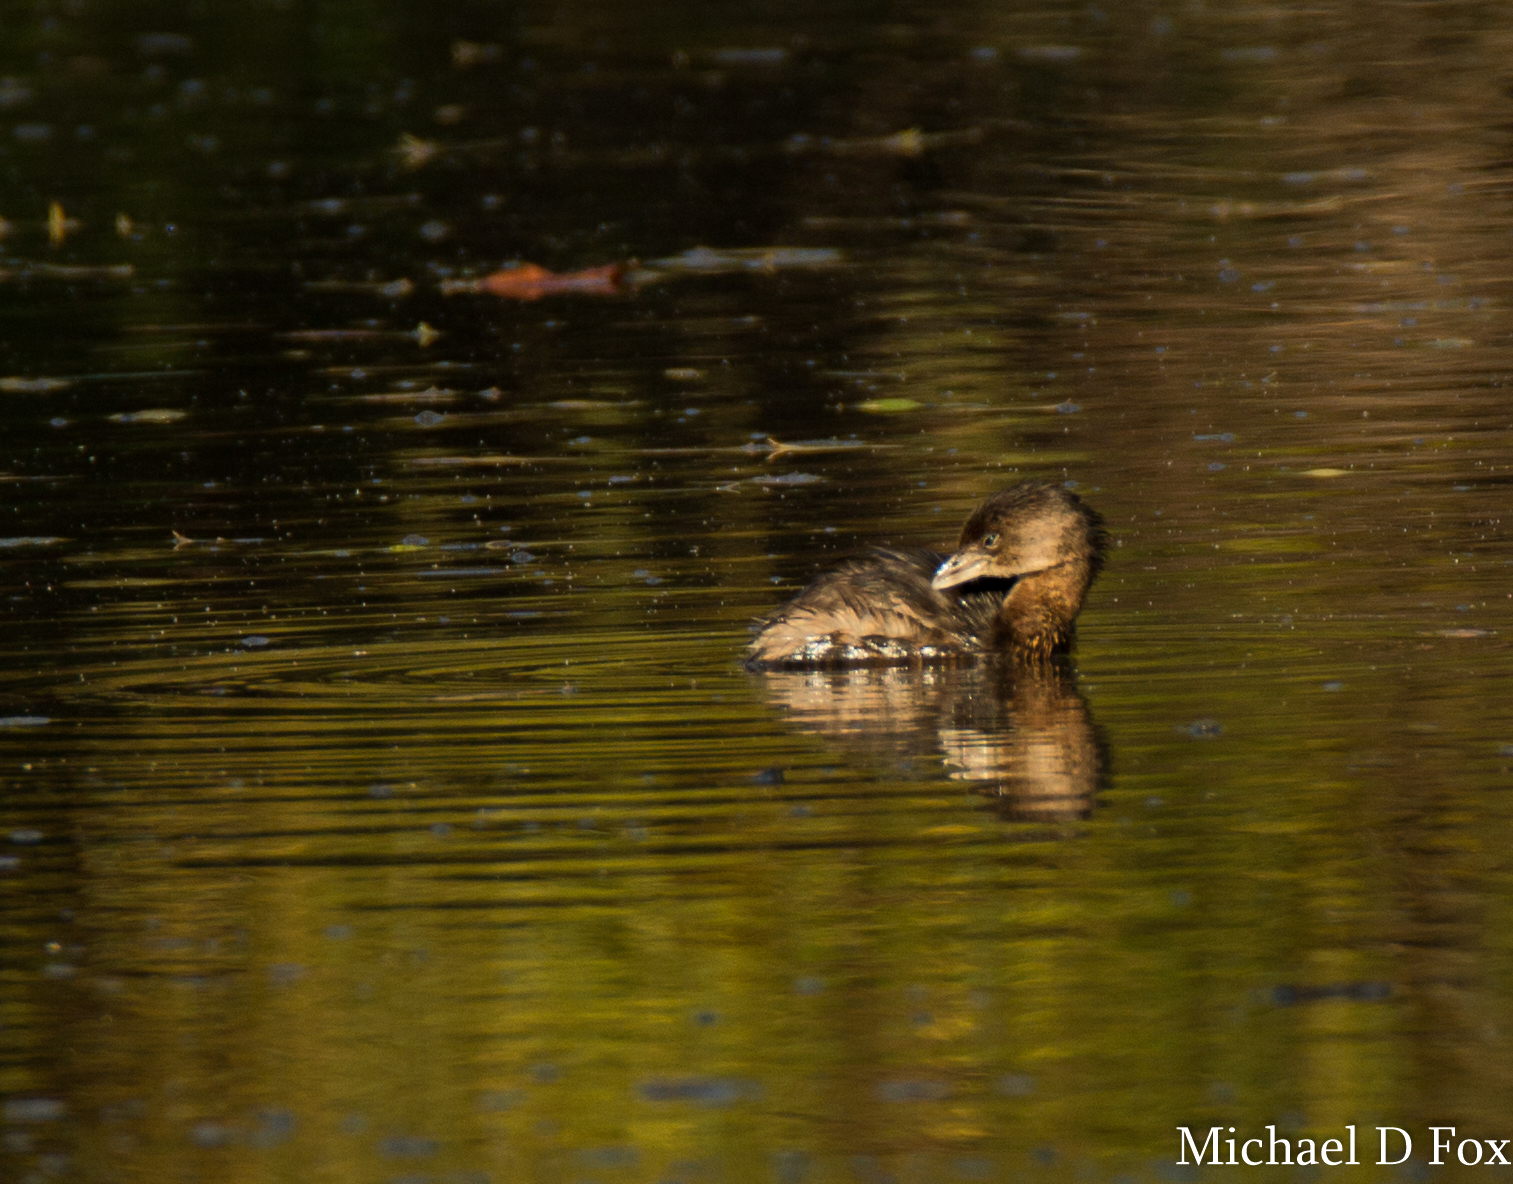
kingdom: Animalia
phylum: Chordata
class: Aves
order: Podicipediformes
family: Podicipedidae
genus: Podilymbus
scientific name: Podilymbus podiceps
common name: Pied-billed grebe
